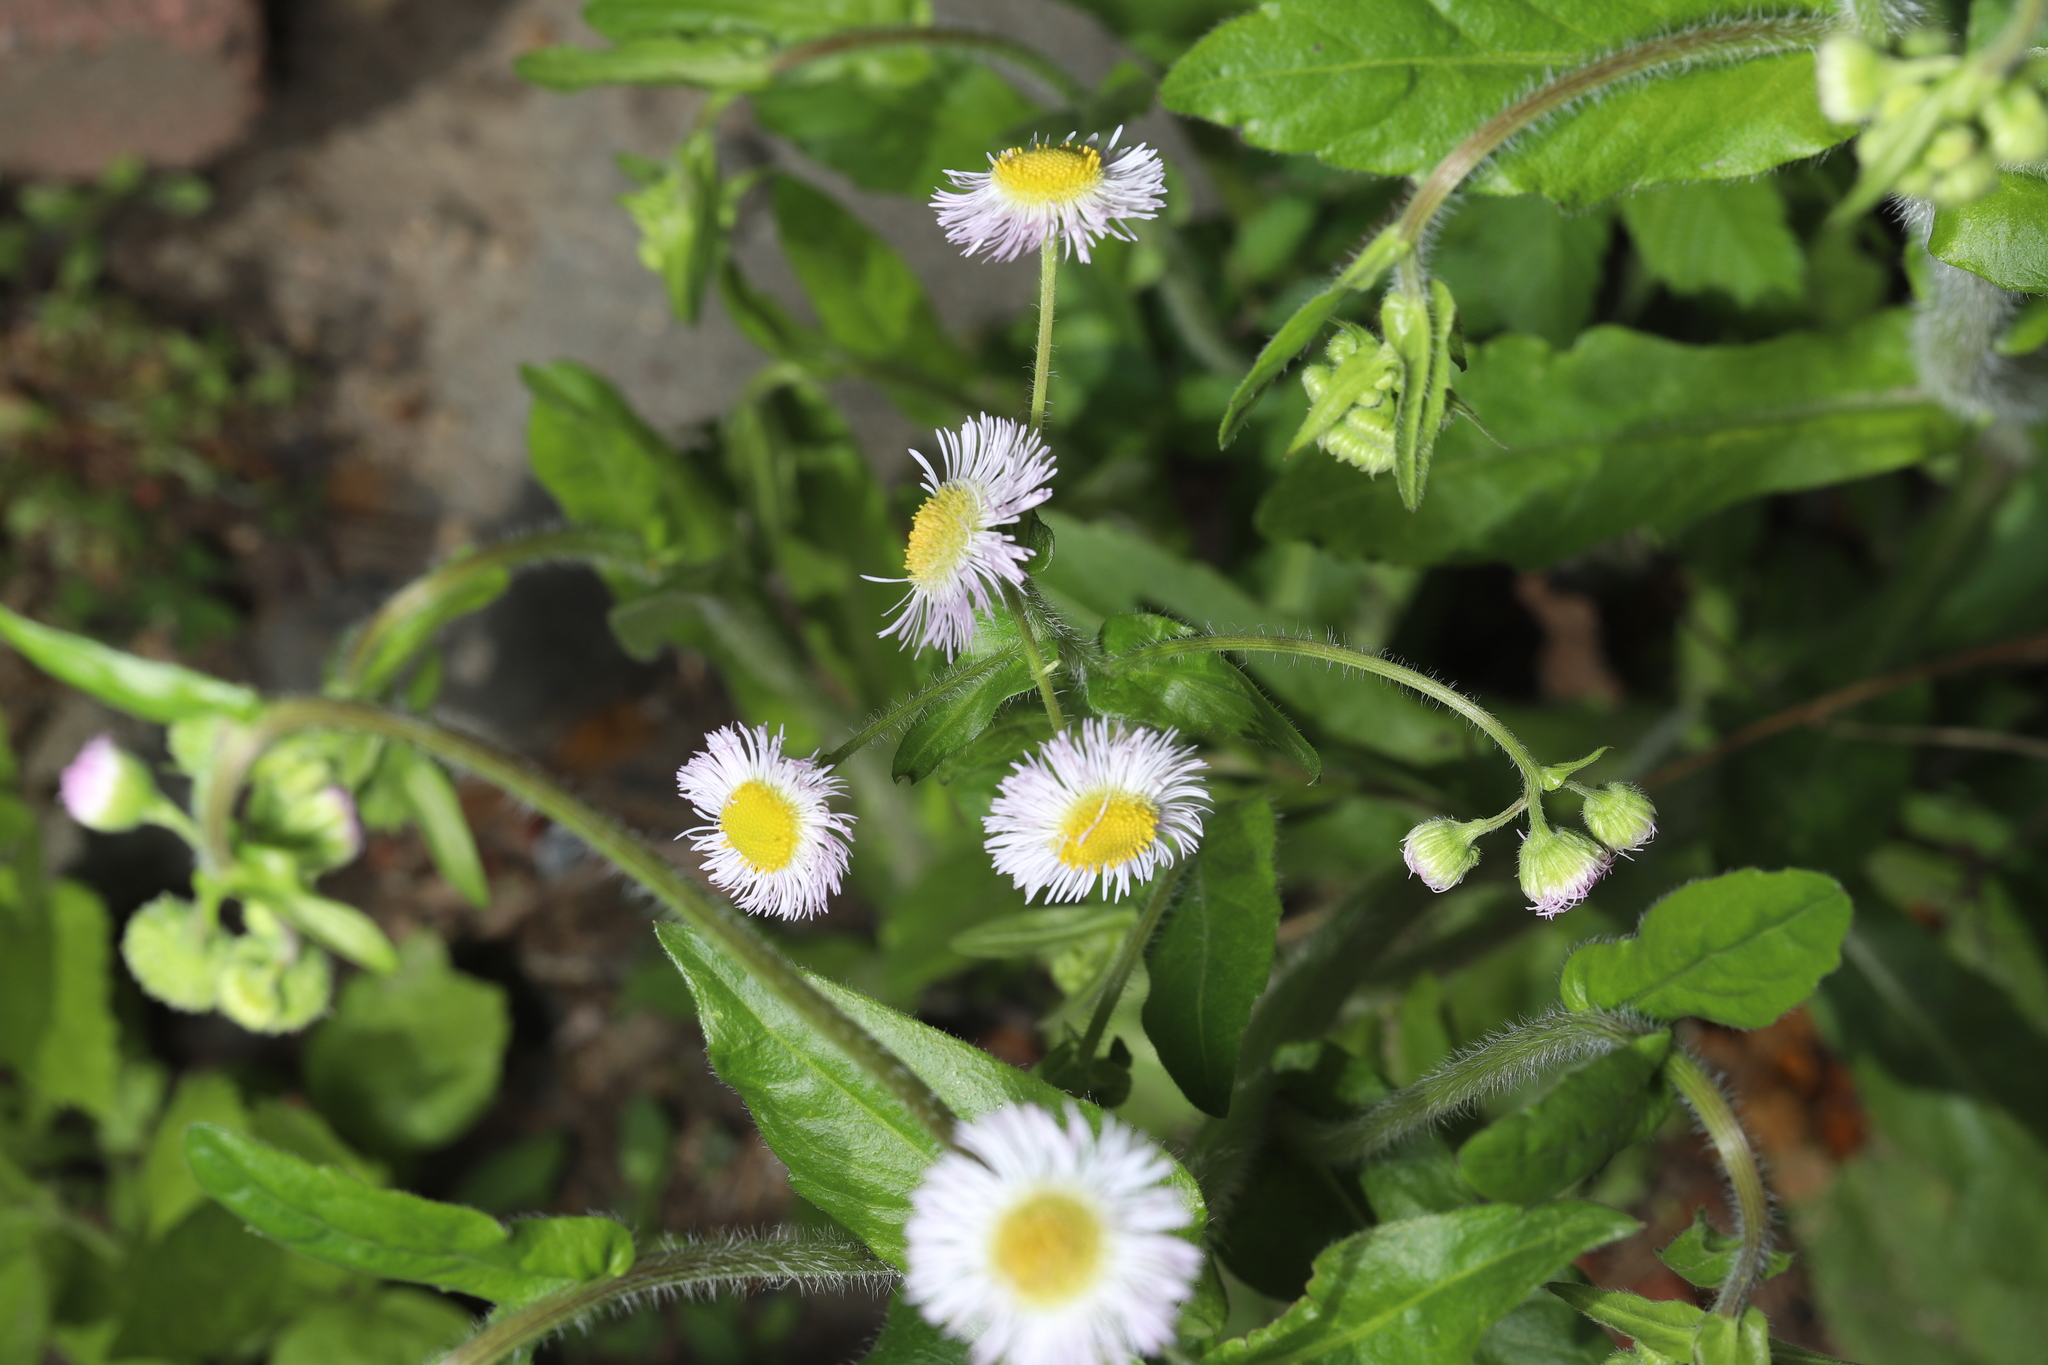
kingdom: Plantae
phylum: Tracheophyta
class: Magnoliopsida
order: Asterales
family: Asteraceae
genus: Erigeron
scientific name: Erigeron philadelphicus
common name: Robin's-plantain
